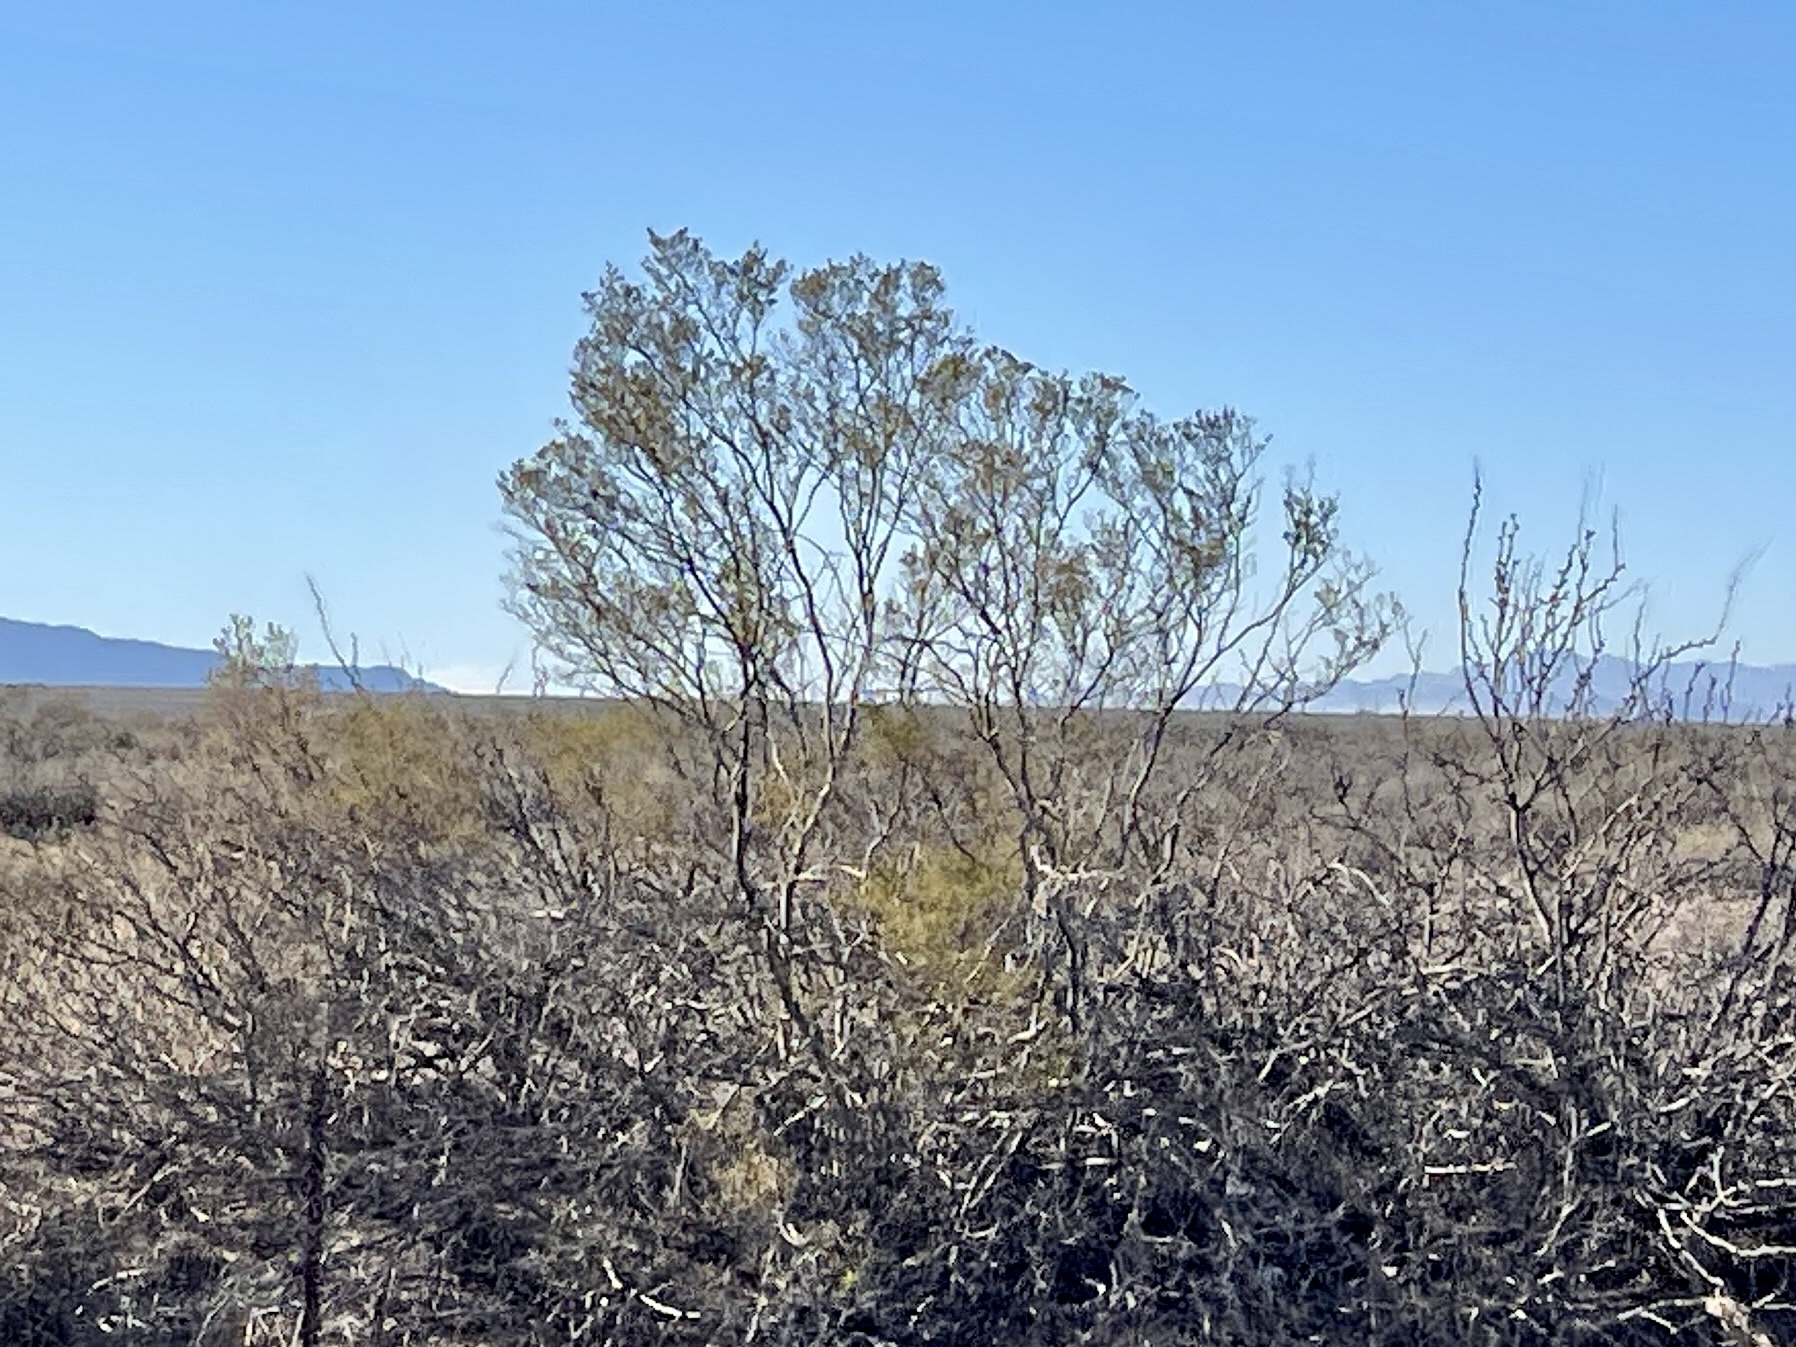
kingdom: Plantae
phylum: Tracheophyta
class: Magnoliopsida
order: Zygophyllales
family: Zygophyllaceae
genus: Larrea
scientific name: Larrea tridentata
